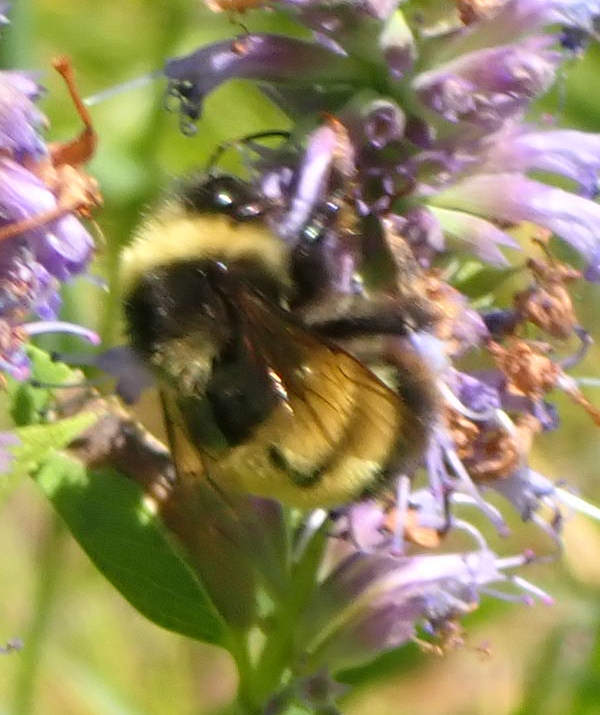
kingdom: Animalia
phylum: Arthropoda
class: Insecta
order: Hymenoptera
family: Apidae
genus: Bombus
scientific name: Bombus terricola
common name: Yellow-banded bumble bee
